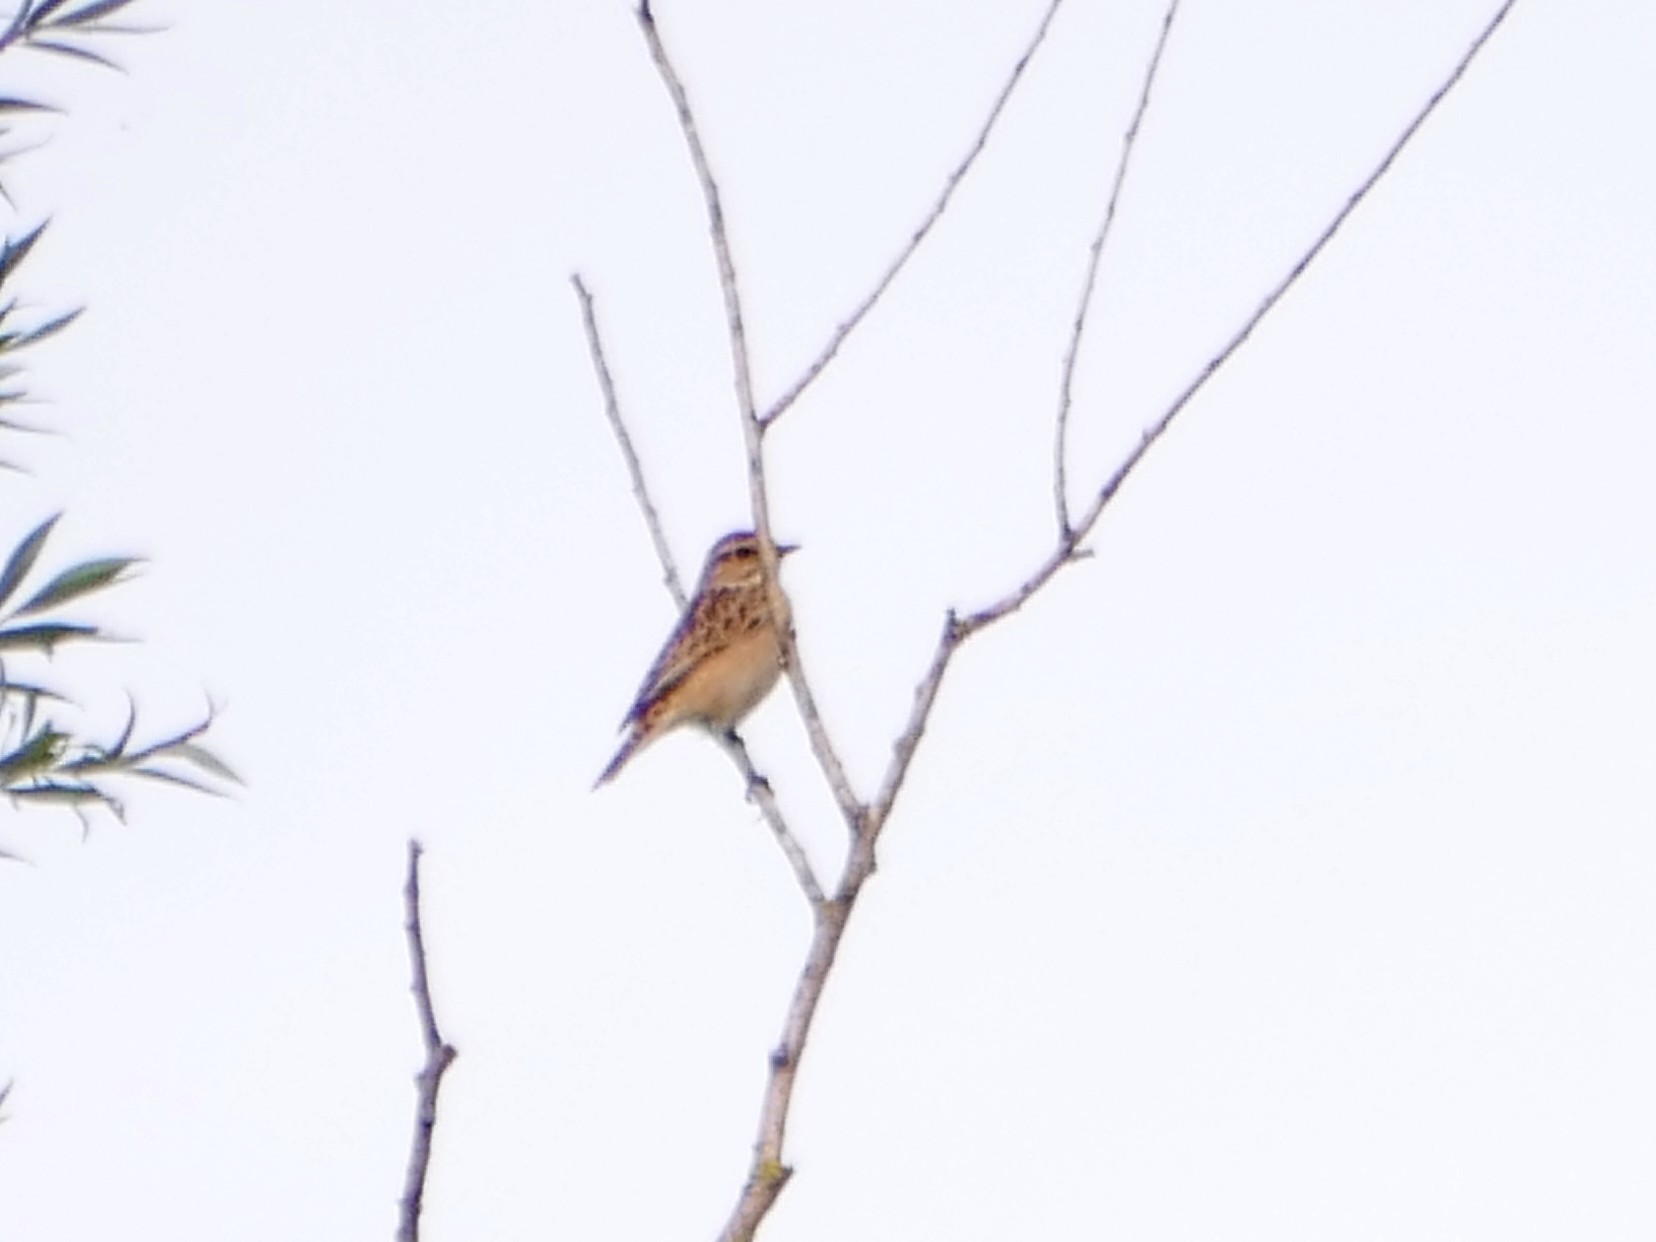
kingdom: Animalia
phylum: Chordata
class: Aves
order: Passeriformes
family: Muscicapidae
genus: Saxicola
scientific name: Saxicola rubetra
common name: Whinchat
